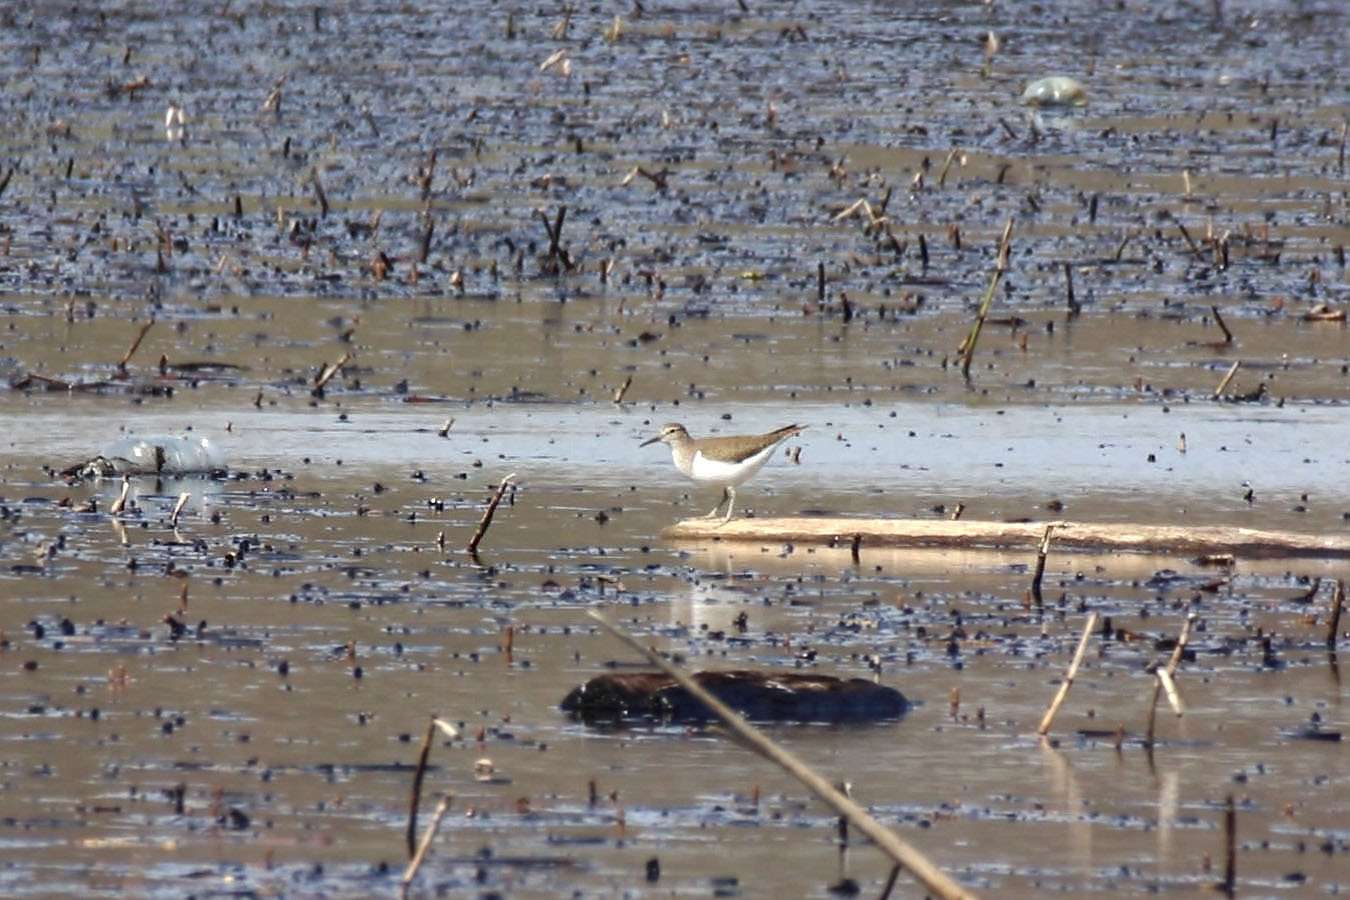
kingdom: Animalia
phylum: Chordata
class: Aves
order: Charadriiformes
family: Scolopacidae
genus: Actitis
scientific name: Actitis hypoleucos
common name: Common sandpiper
